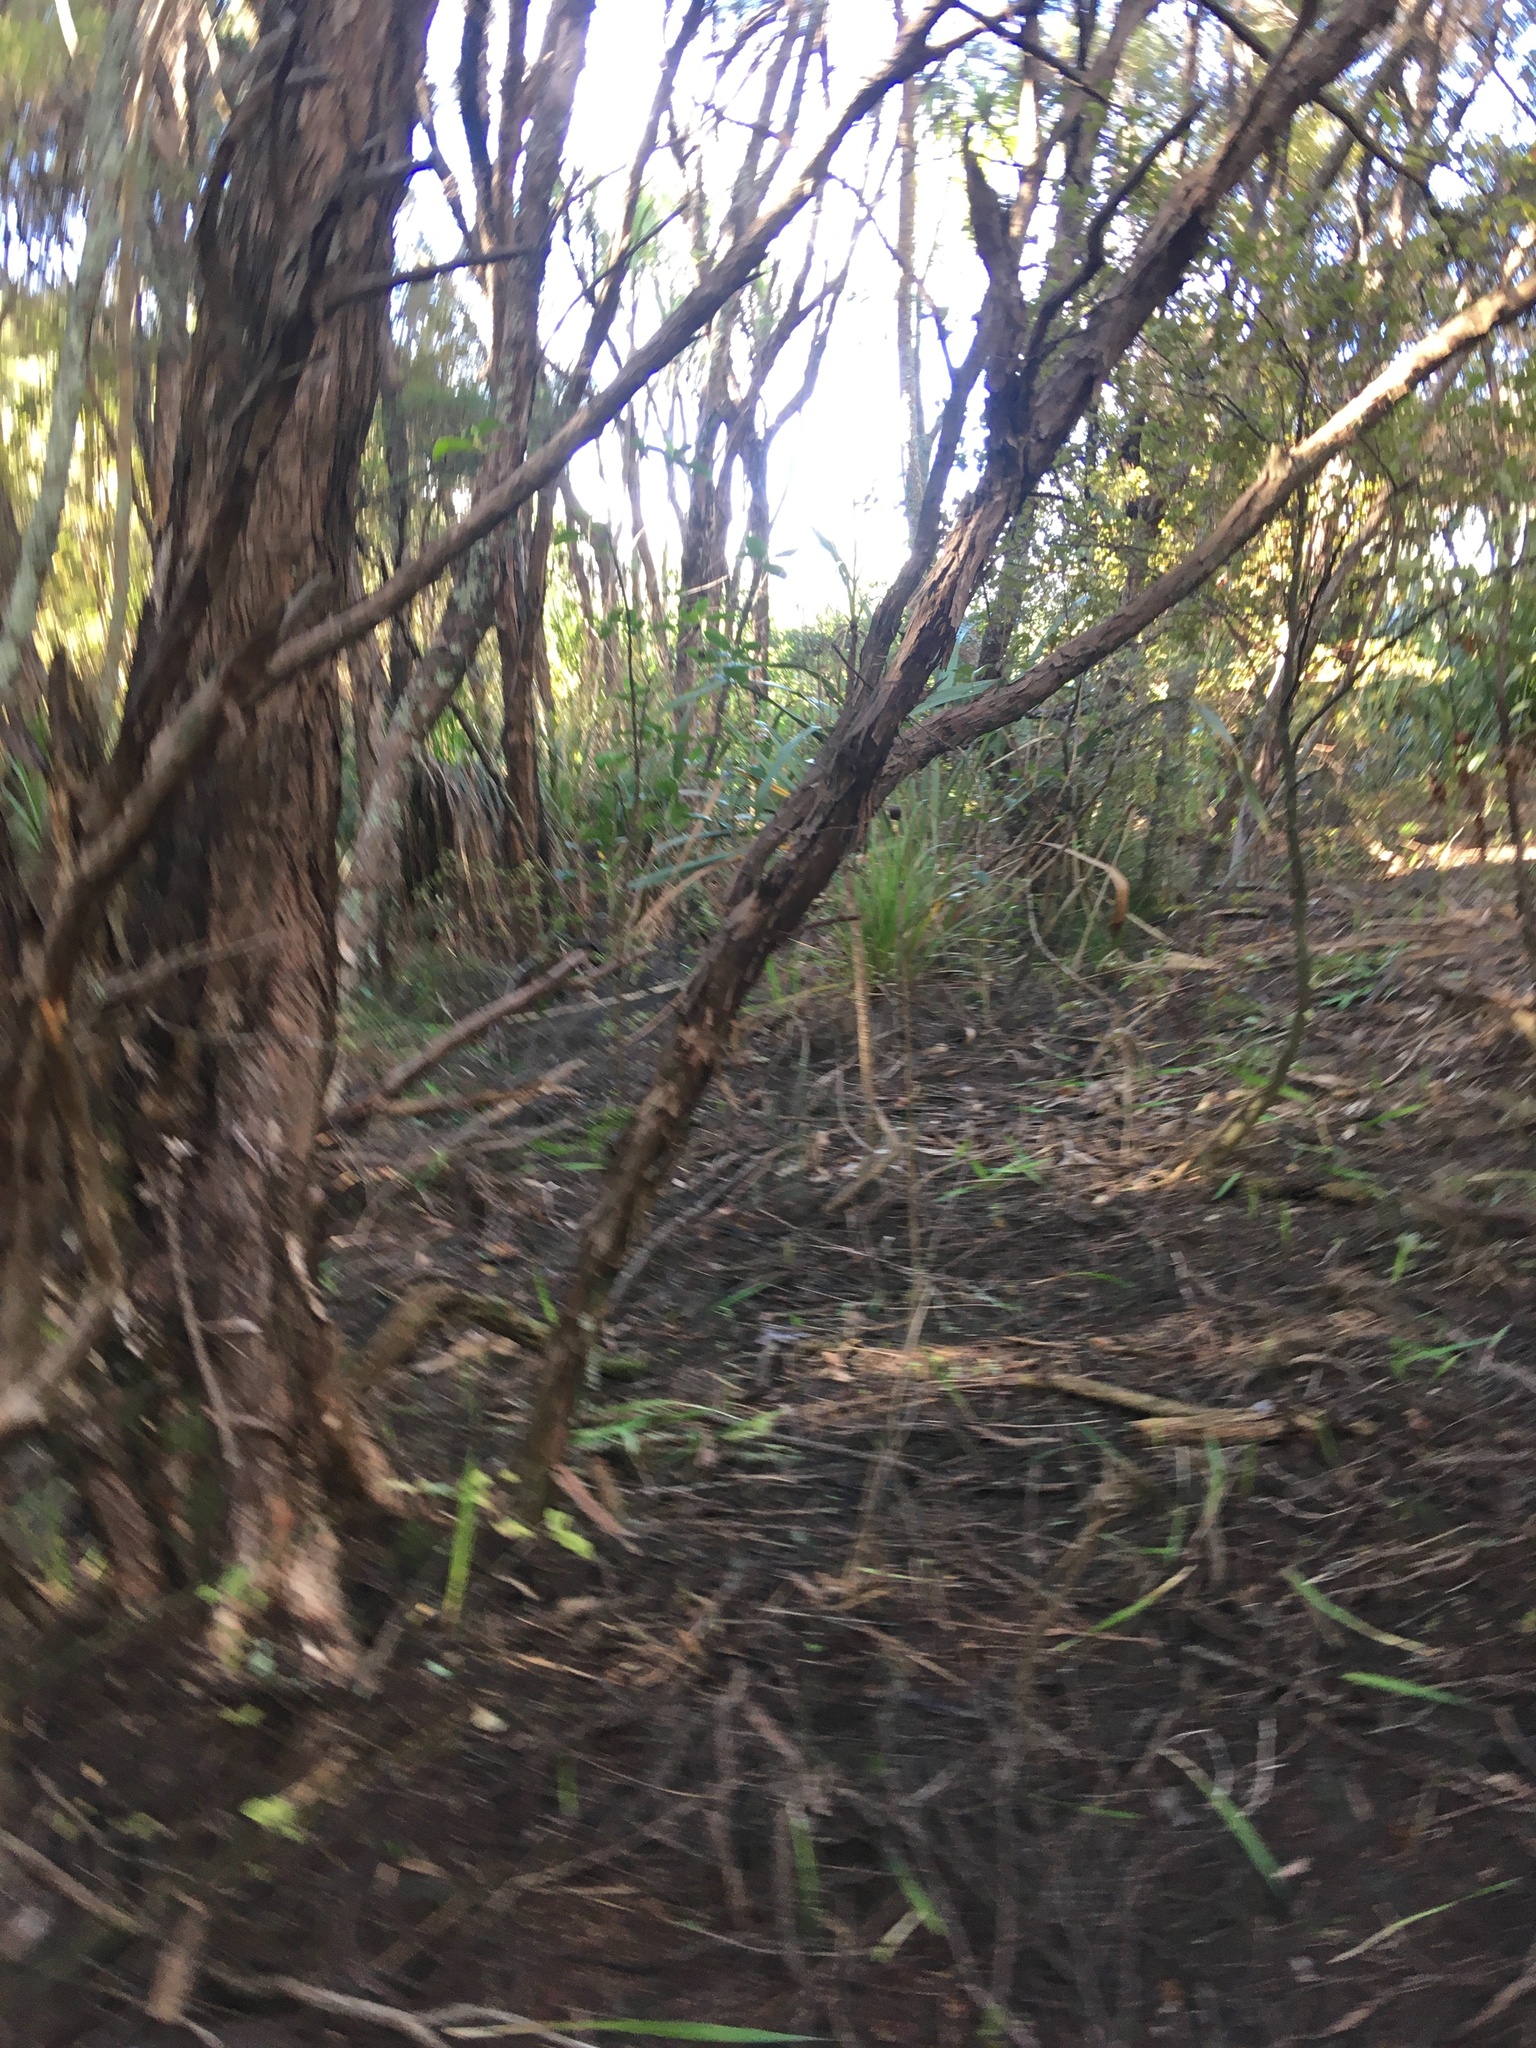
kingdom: Plantae
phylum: Tracheophyta
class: Magnoliopsida
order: Myrtales
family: Myrtaceae
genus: Leptospermum
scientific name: Leptospermum scoparium
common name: Broom tea-tree
